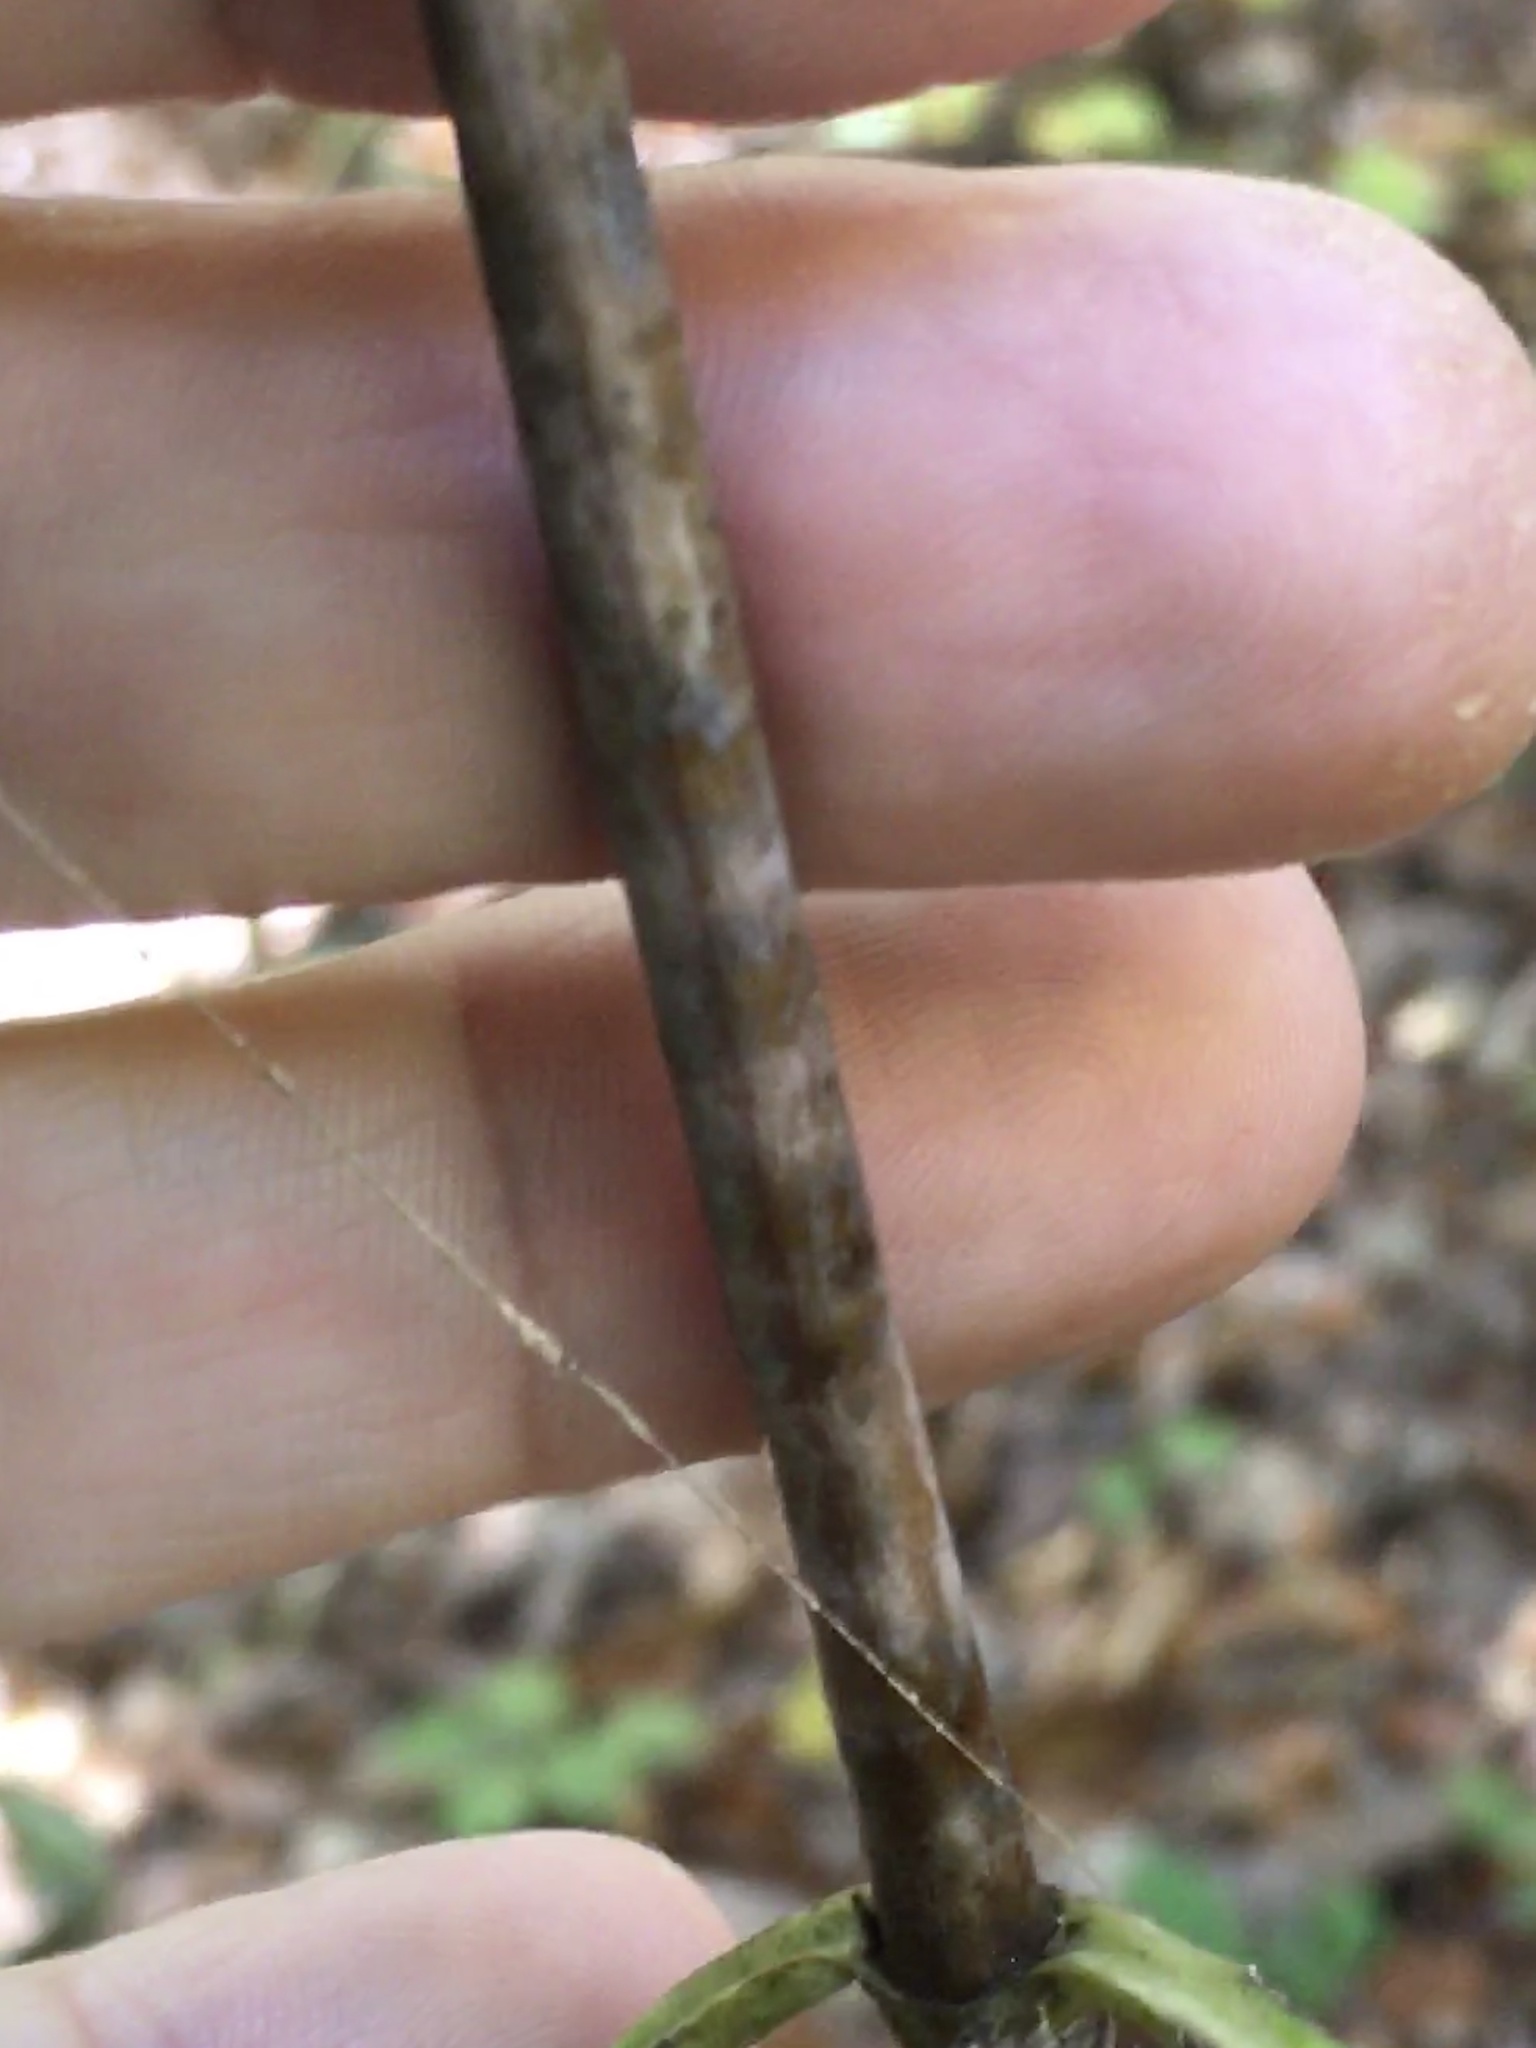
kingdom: Plantae
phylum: Tracheophyta
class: Magnoliopsida
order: Asterales
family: Asteraceae
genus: Helianthus
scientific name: Helianthus strumosus
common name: Pale-leaved sunflower
